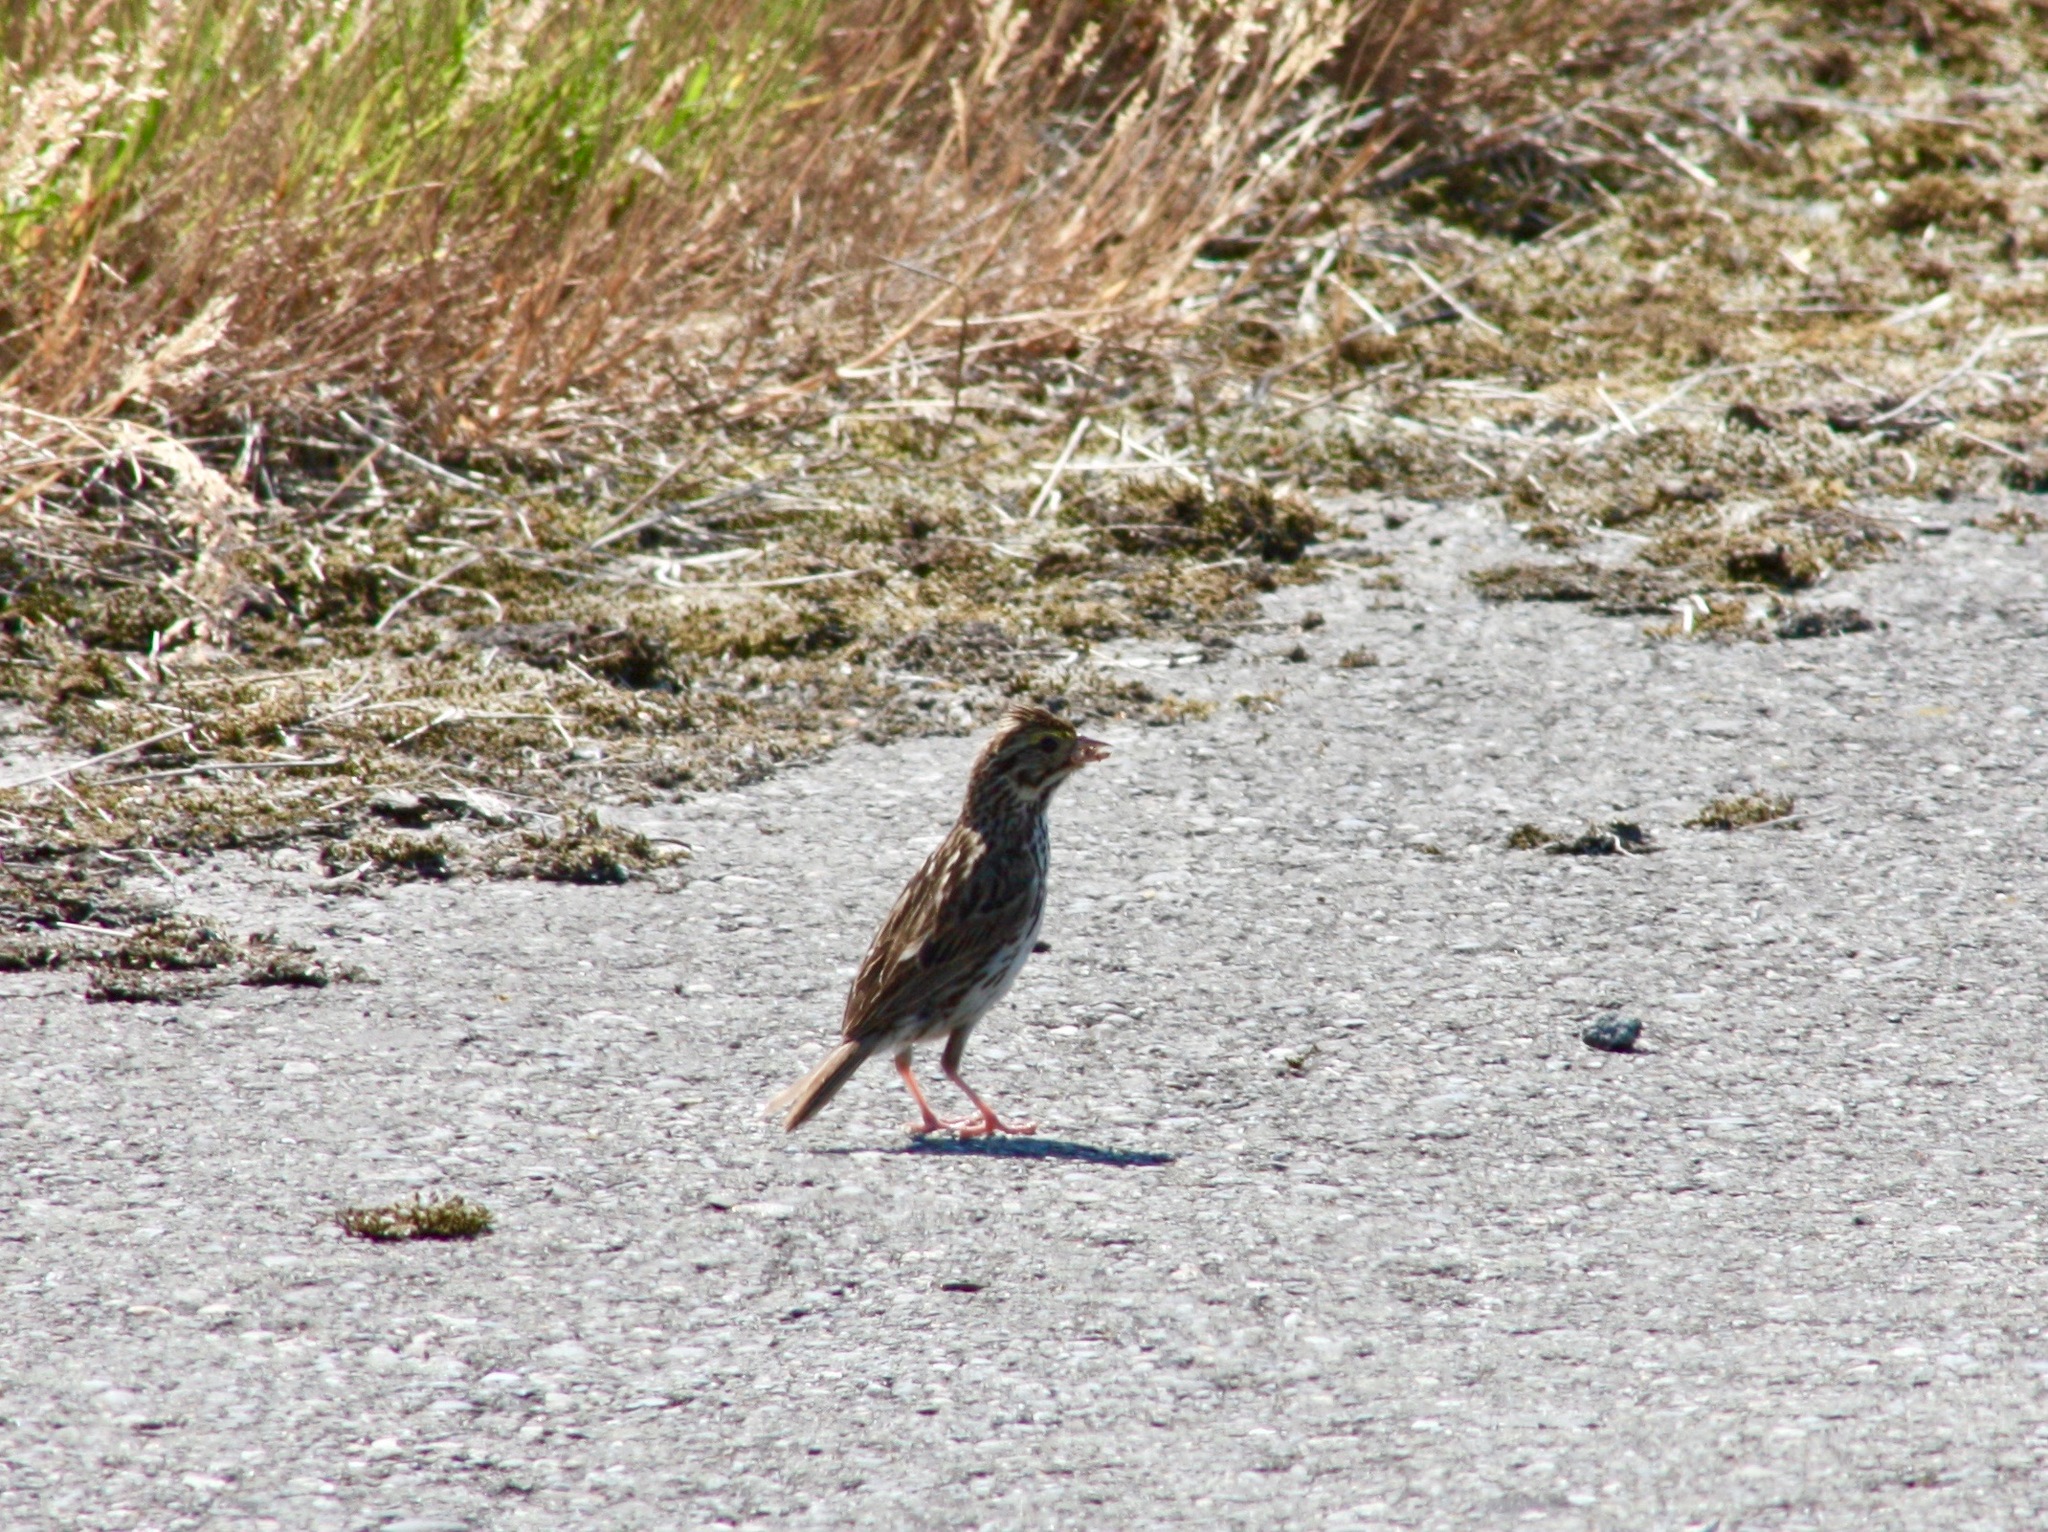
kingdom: Animalia
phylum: Chordata
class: Aves
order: Passeriformes
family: Passerellidae
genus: Passerculus
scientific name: Passerculus sandwichensis
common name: Savannah sparrow
